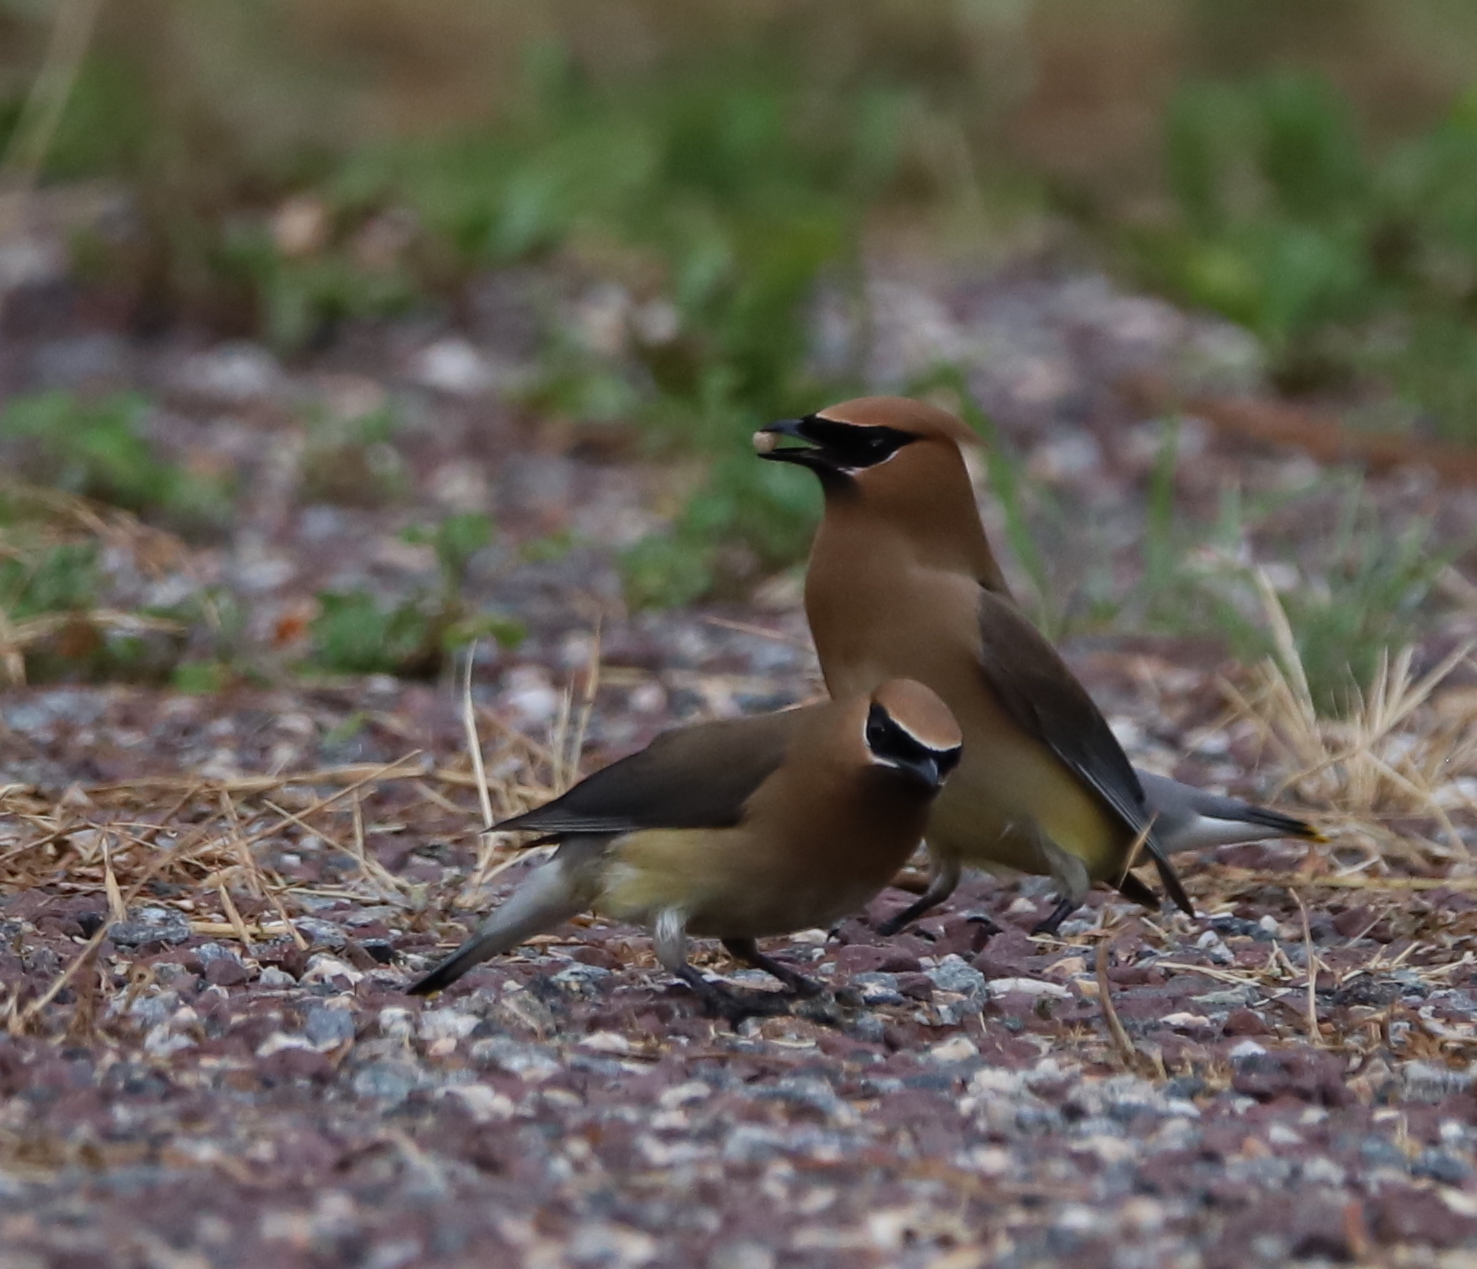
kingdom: Animalia
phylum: Chordata
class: Aves
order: Passeriformes
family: Bombycillidae
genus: Bombycilla
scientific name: Bombycilla cedrorum
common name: Cedar waxwing
